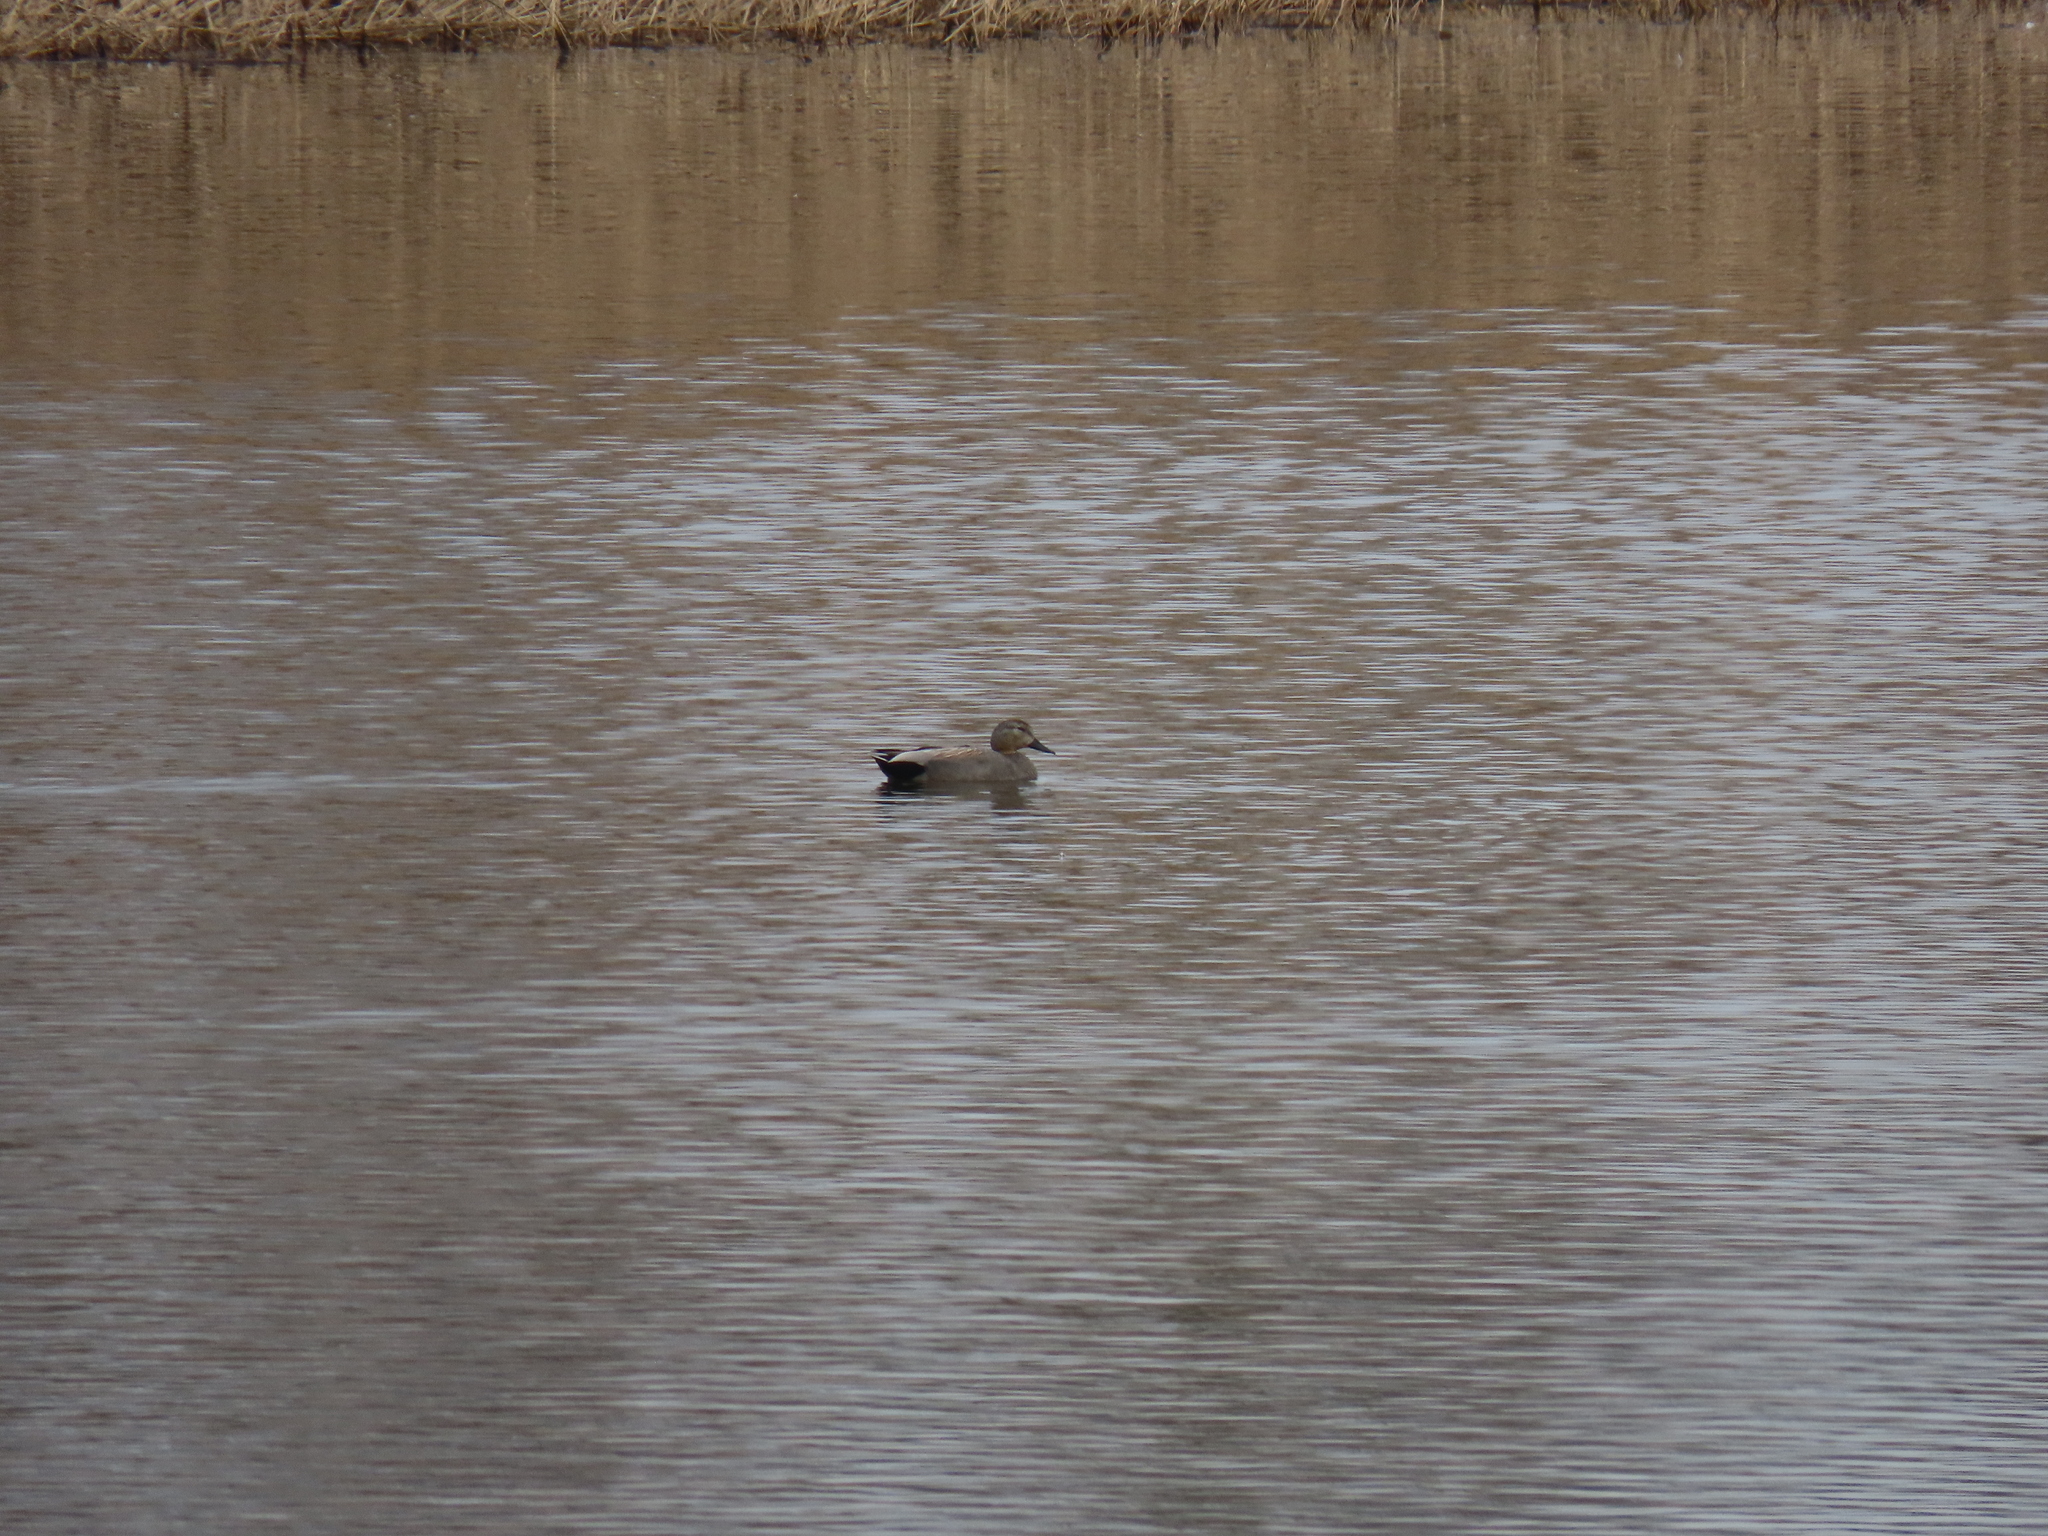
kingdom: Animalia
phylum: Chordata
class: Aves
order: Anseriformes
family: Anatidae
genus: Mareca
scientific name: Mareca strepera
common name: Gadwall
